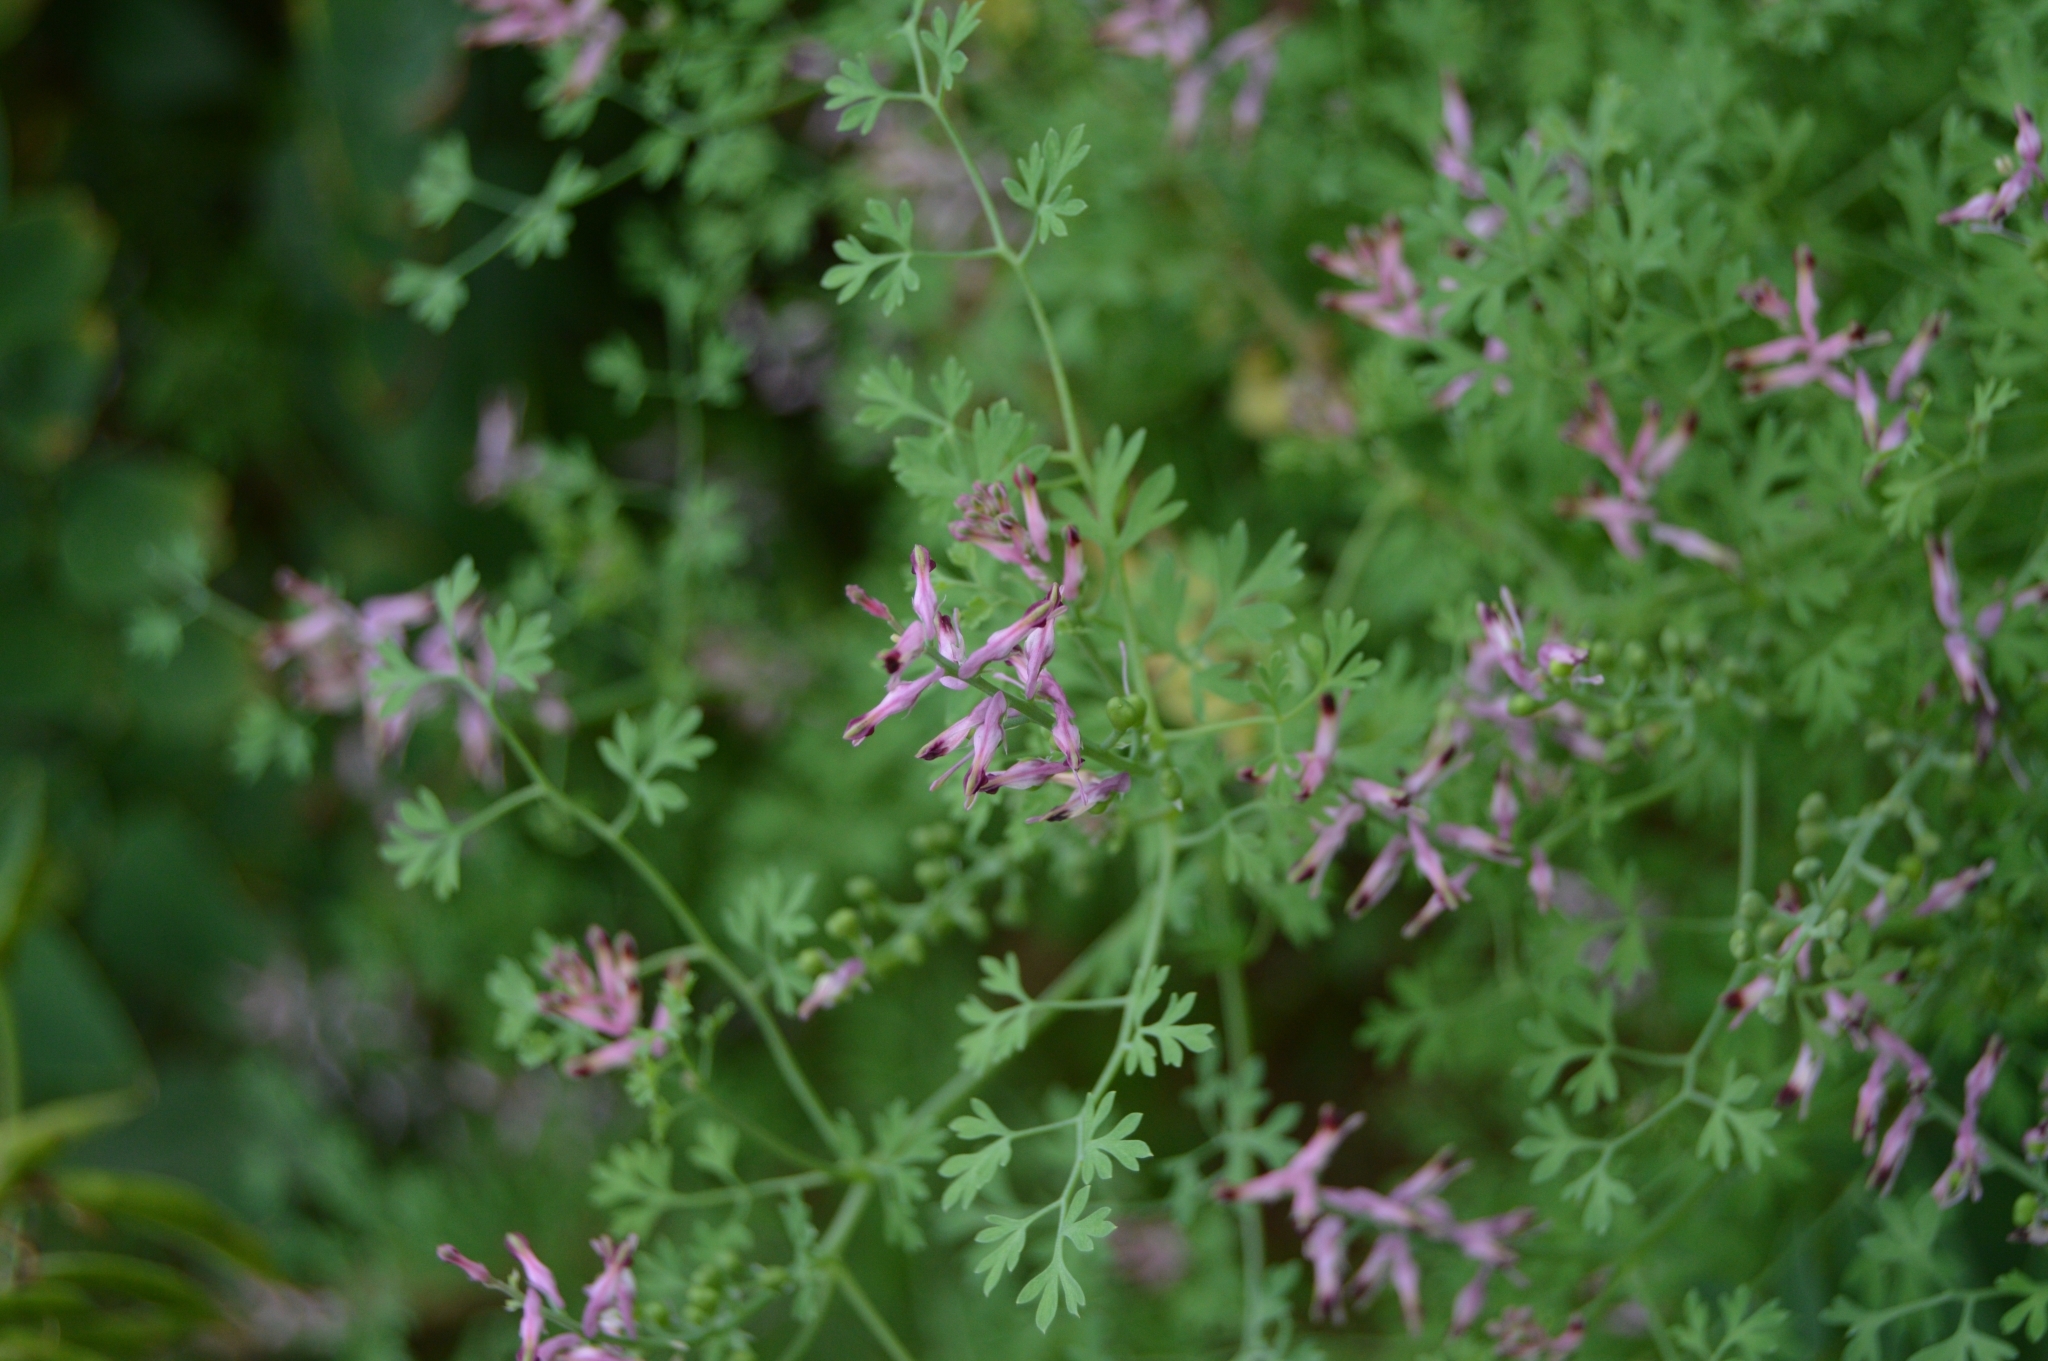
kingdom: Plantae
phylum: Tracheophyta
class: Magnoliopsida
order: Ranunculales
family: Papaveraceae
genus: Fumaria
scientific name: Fumaria officinalis
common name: Common fumitory
